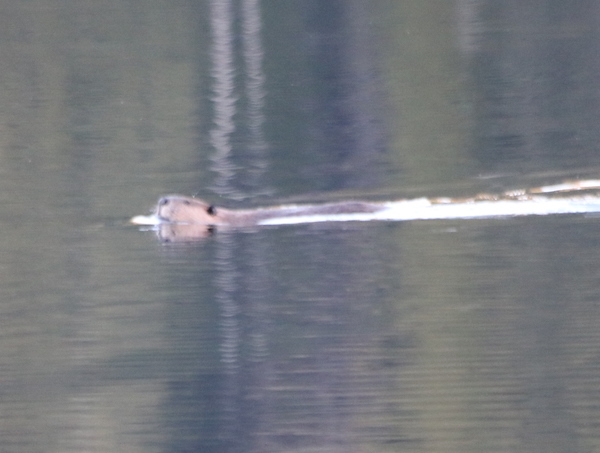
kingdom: Animalia
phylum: Chordata
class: Mammalia
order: Rodentia
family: Castoridae
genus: Castor
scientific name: Castor canadensis
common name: American beaver
